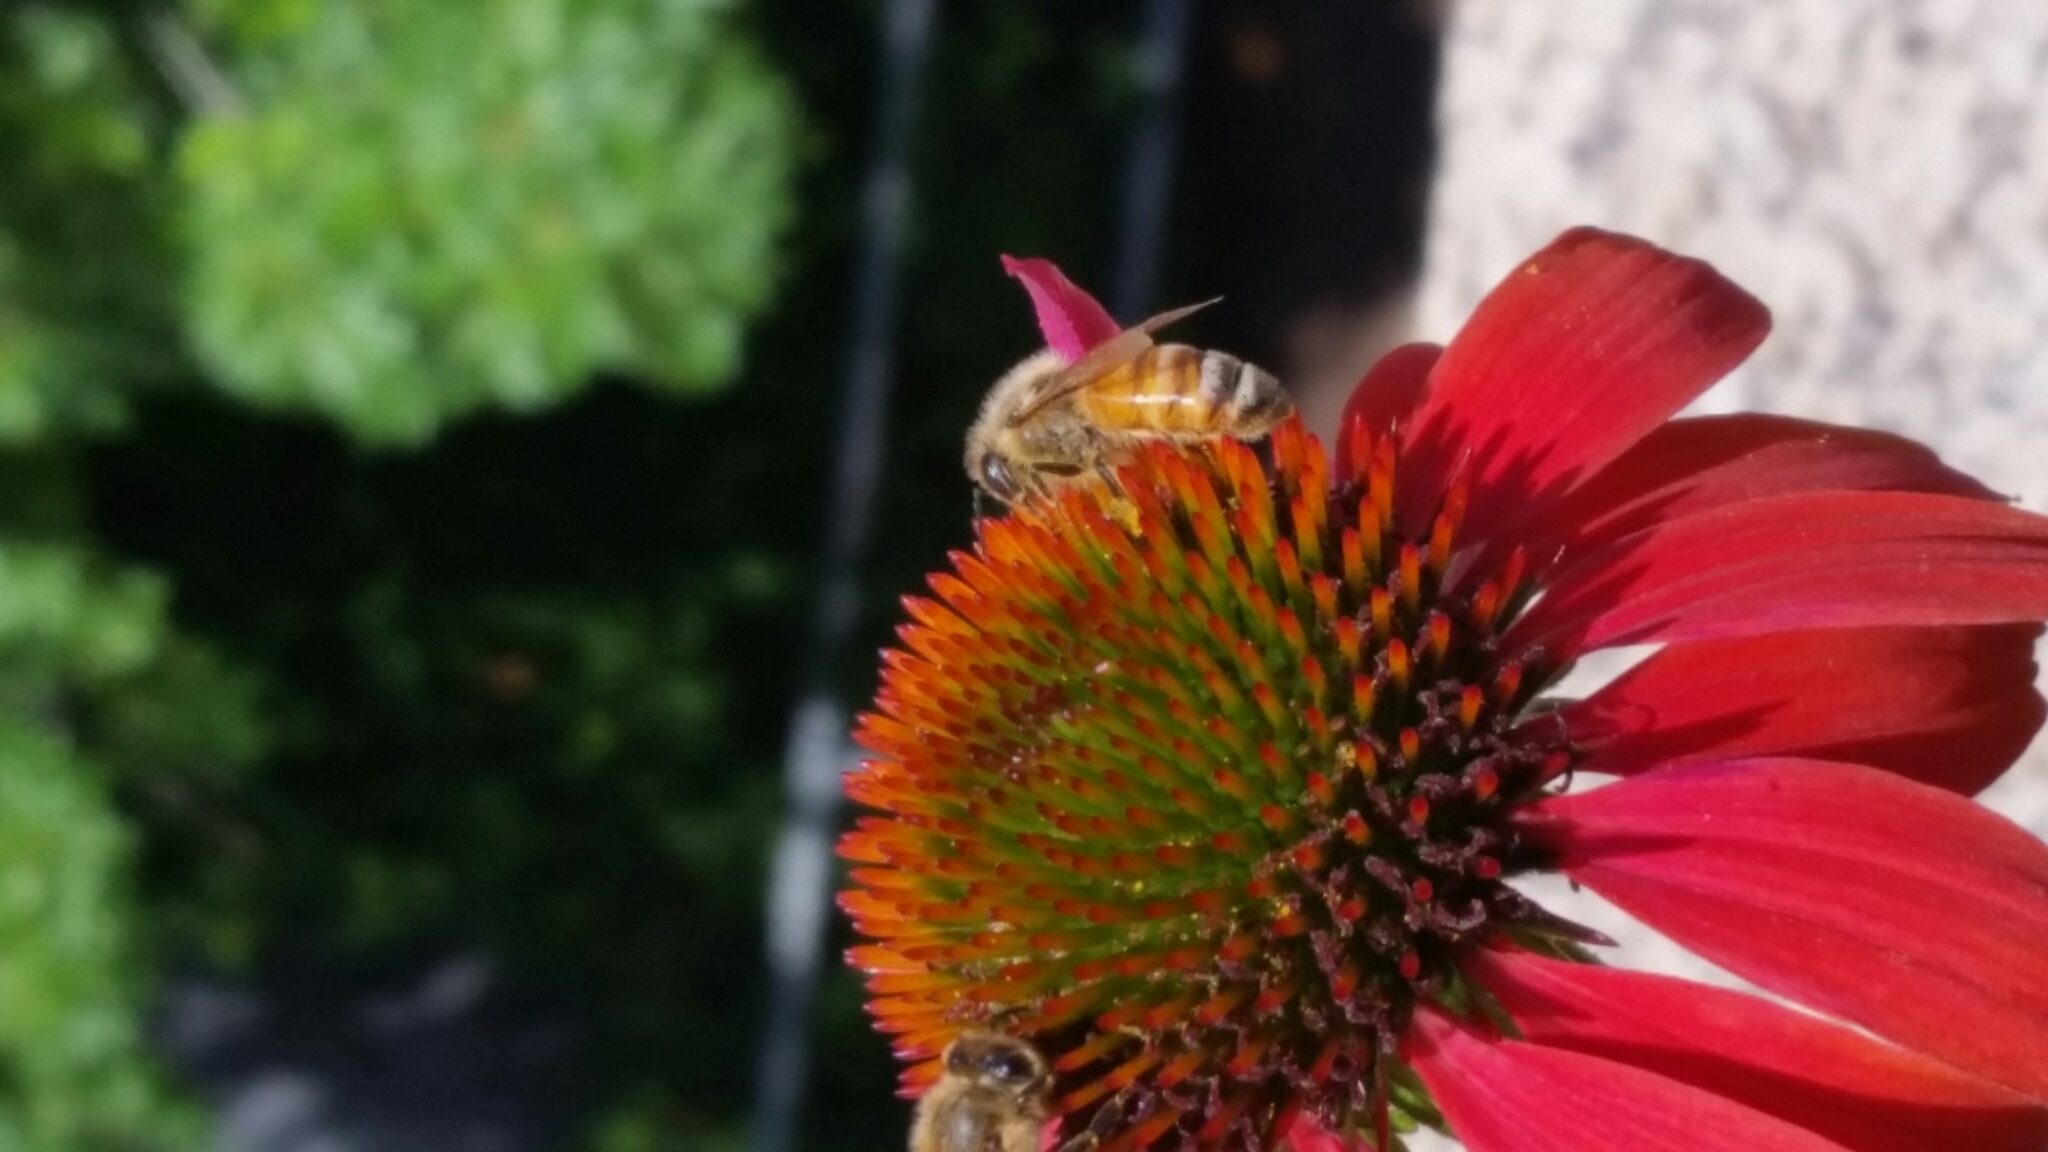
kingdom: Animalia
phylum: Arthropoda
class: Insecta
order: Hymenoptera
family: Apidae
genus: Apis
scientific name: Apis mellifera
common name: Honey bee
